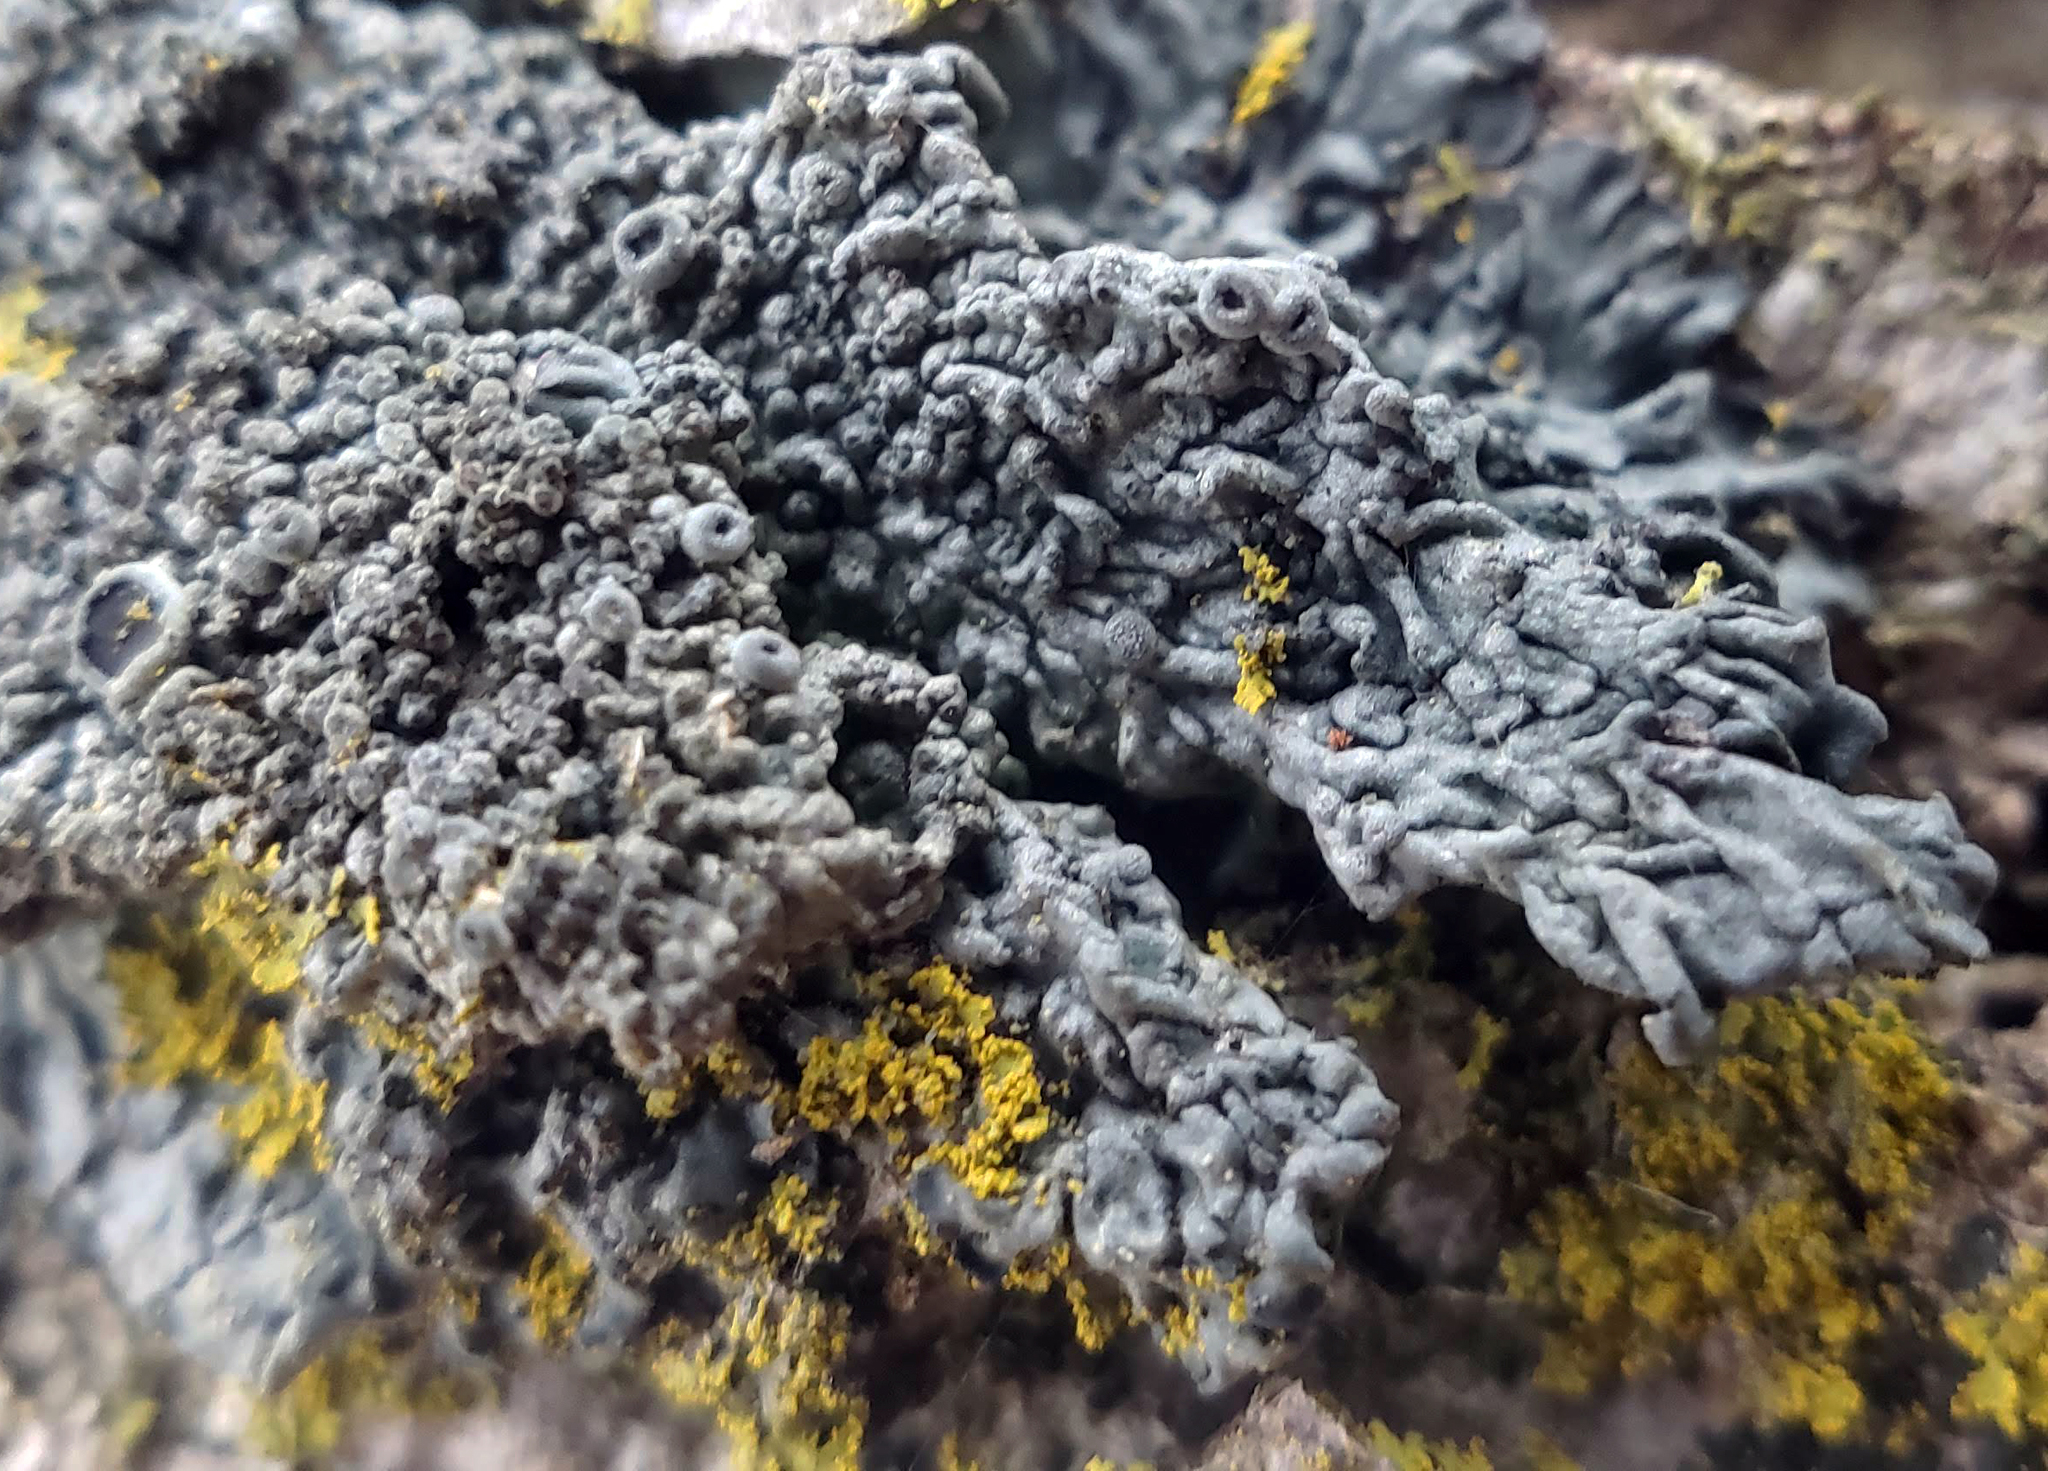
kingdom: Fungi
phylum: Ascomycota
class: Lecanoromycetes
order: Caliciales
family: Physciaceae
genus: Hyperphyscia
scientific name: Hyperphyscia syncolla
